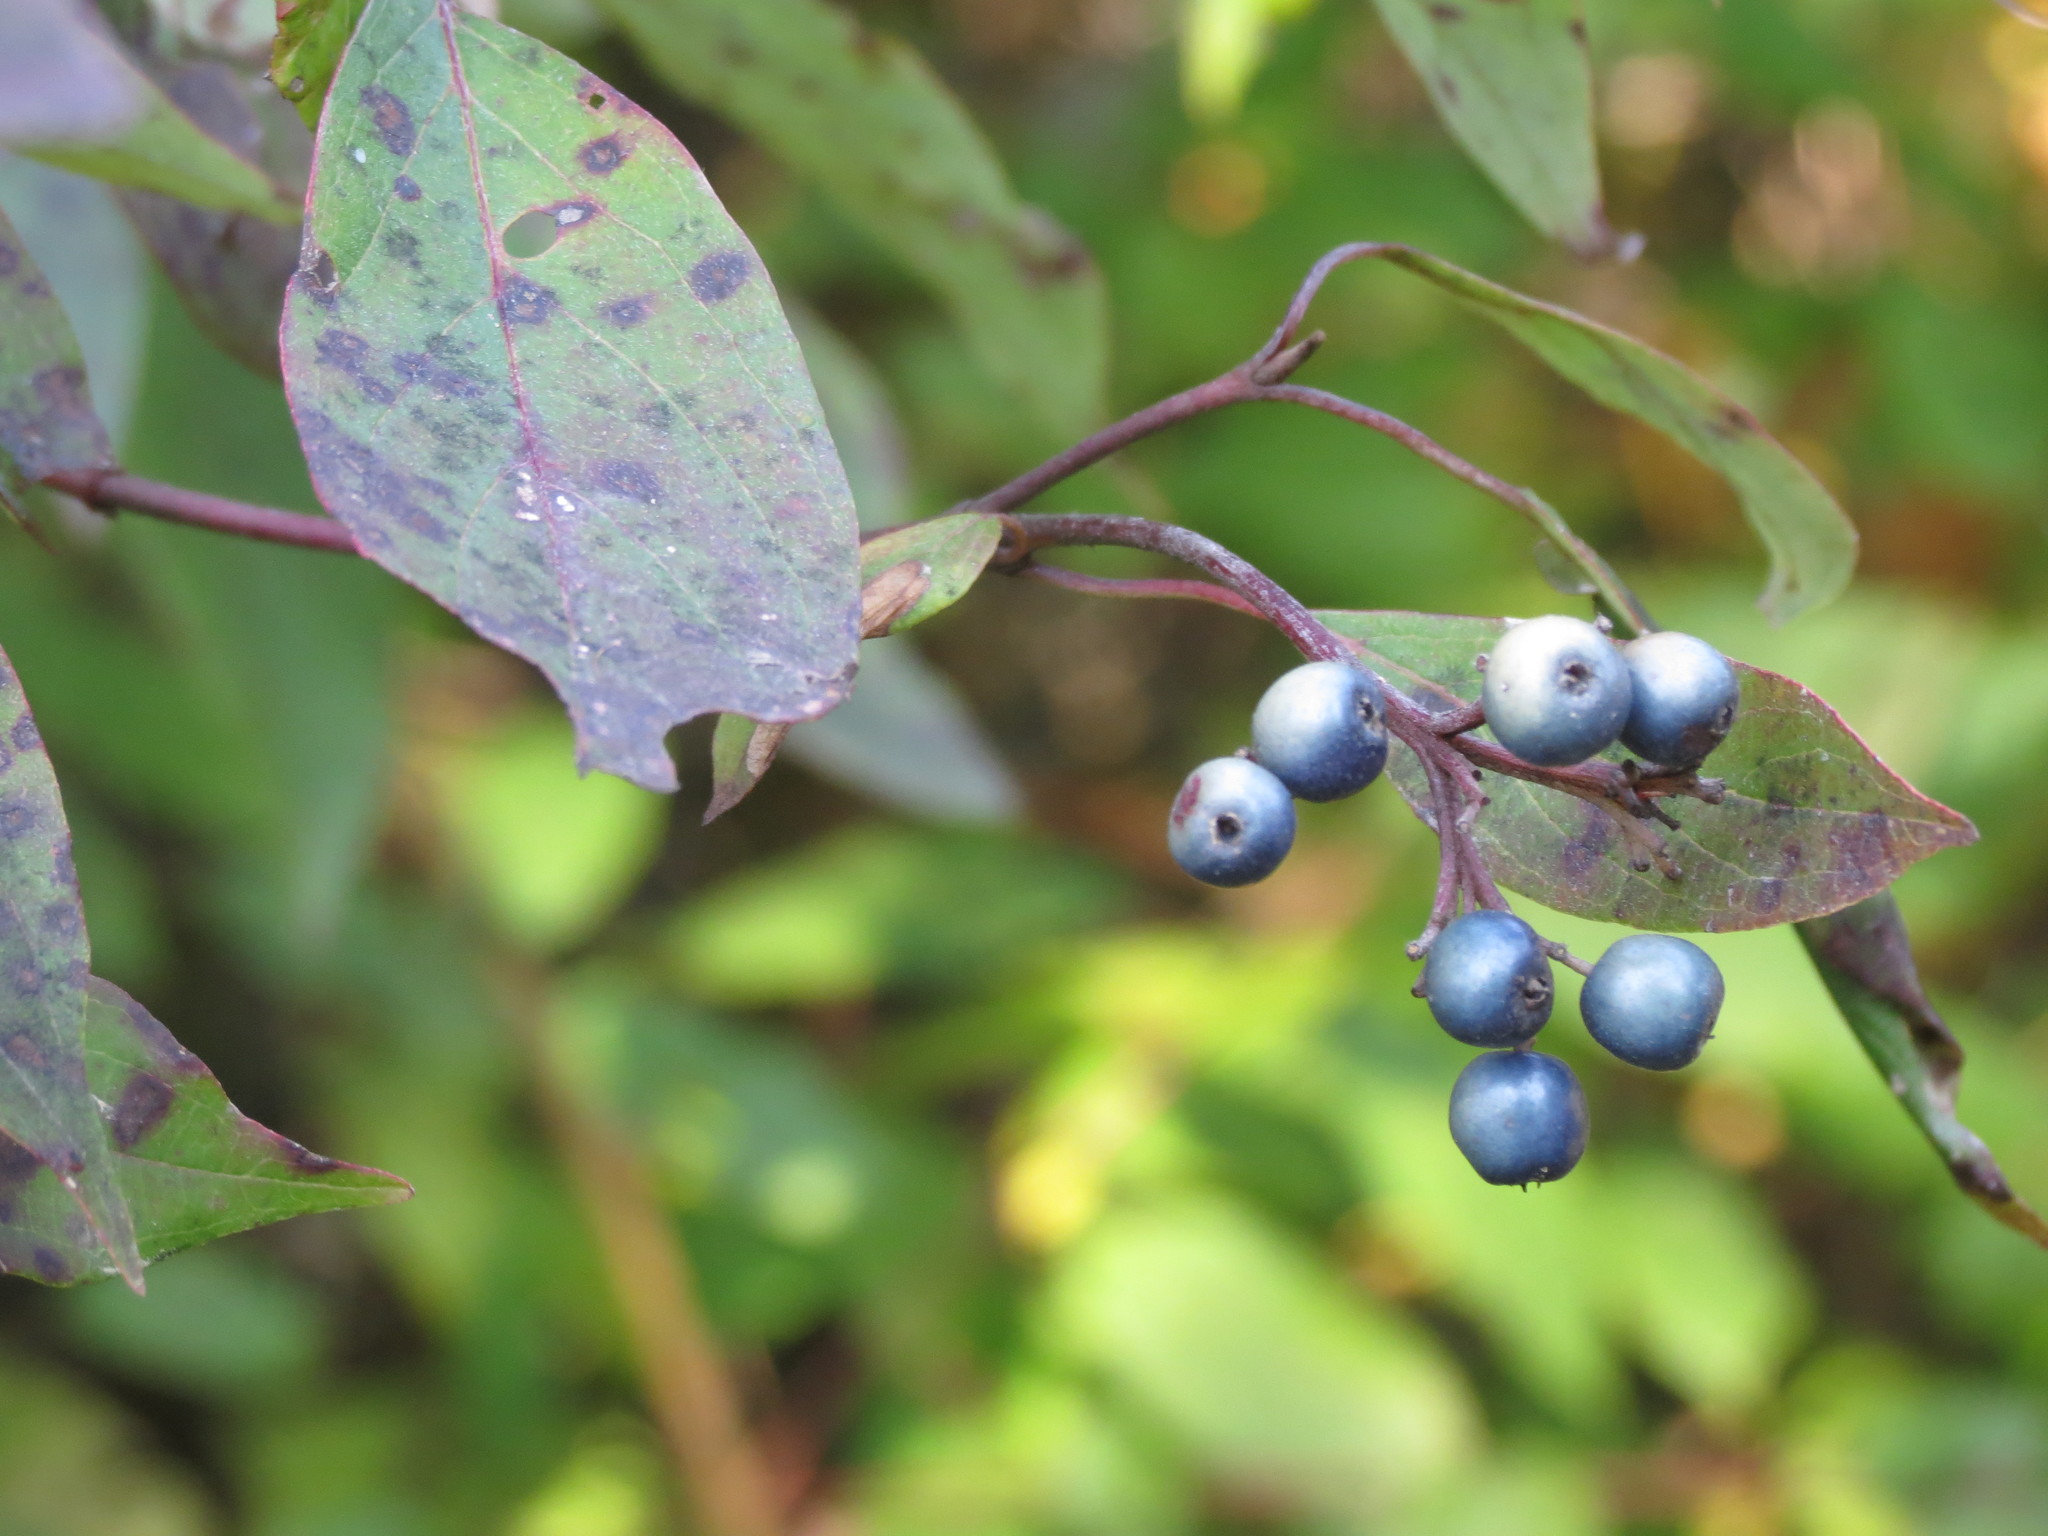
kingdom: Plantae
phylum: Tracheophyta
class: Magnoliopsida
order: Cornales
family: Cornaceae
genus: Cornus
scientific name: Cornus amomum
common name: Silky dogwood
